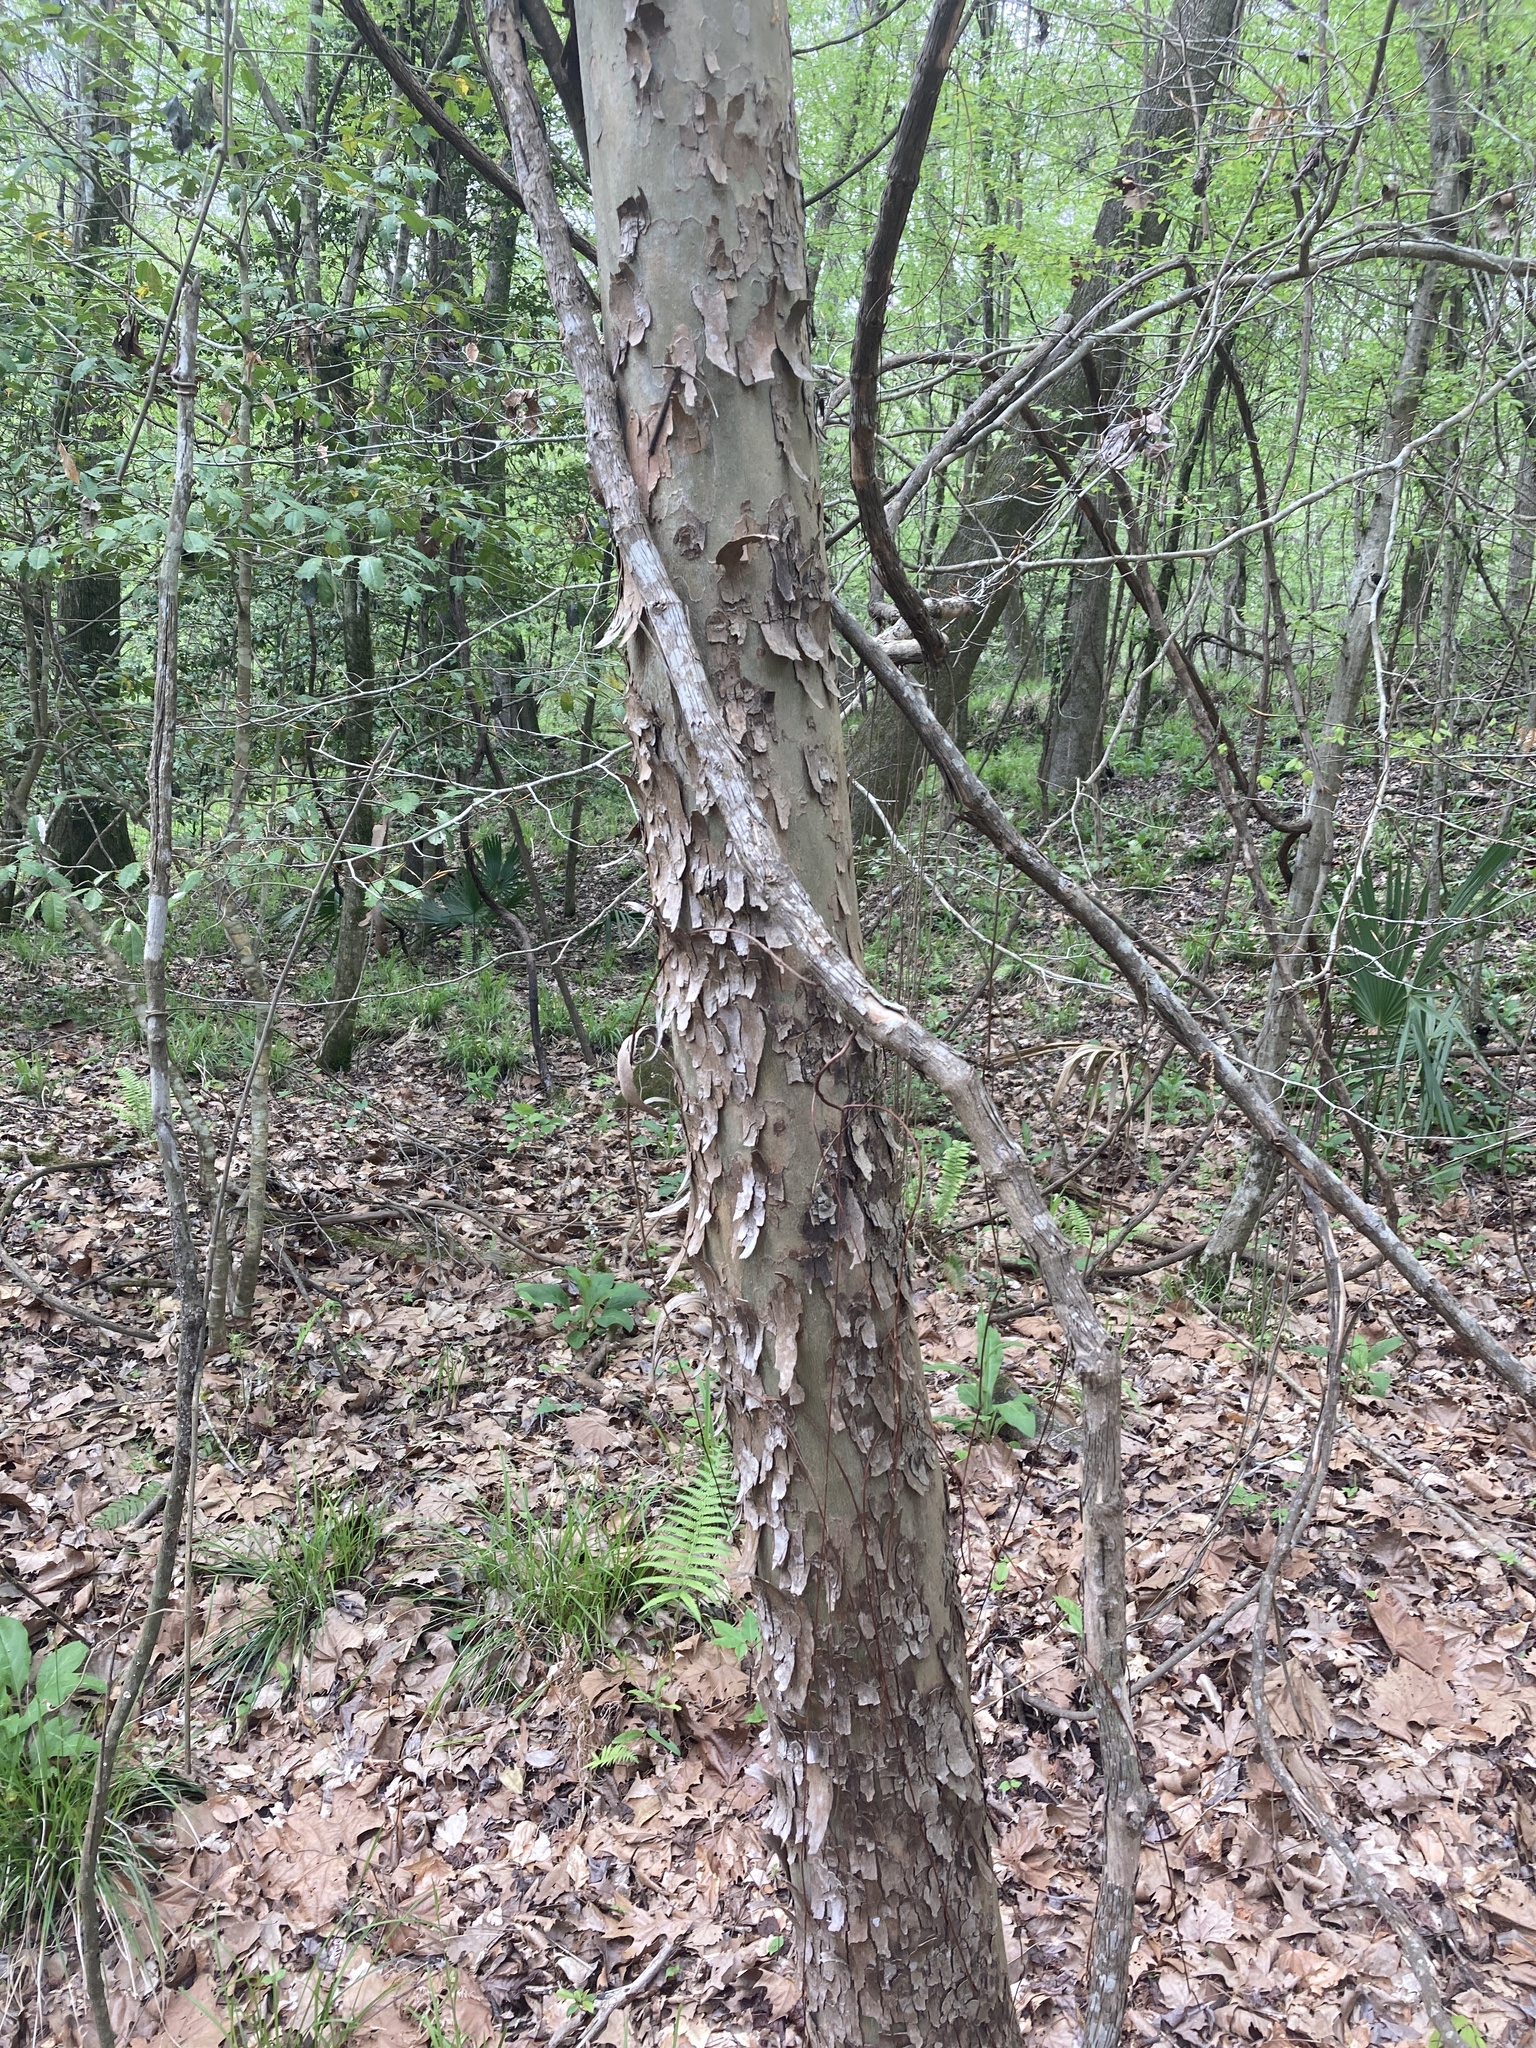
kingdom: Plantae
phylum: Tracheophyta
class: Magnoliopsida
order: Proteales
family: Platanaceae
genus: Platanus
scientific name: Platanus occidentalis
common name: American sycamore
